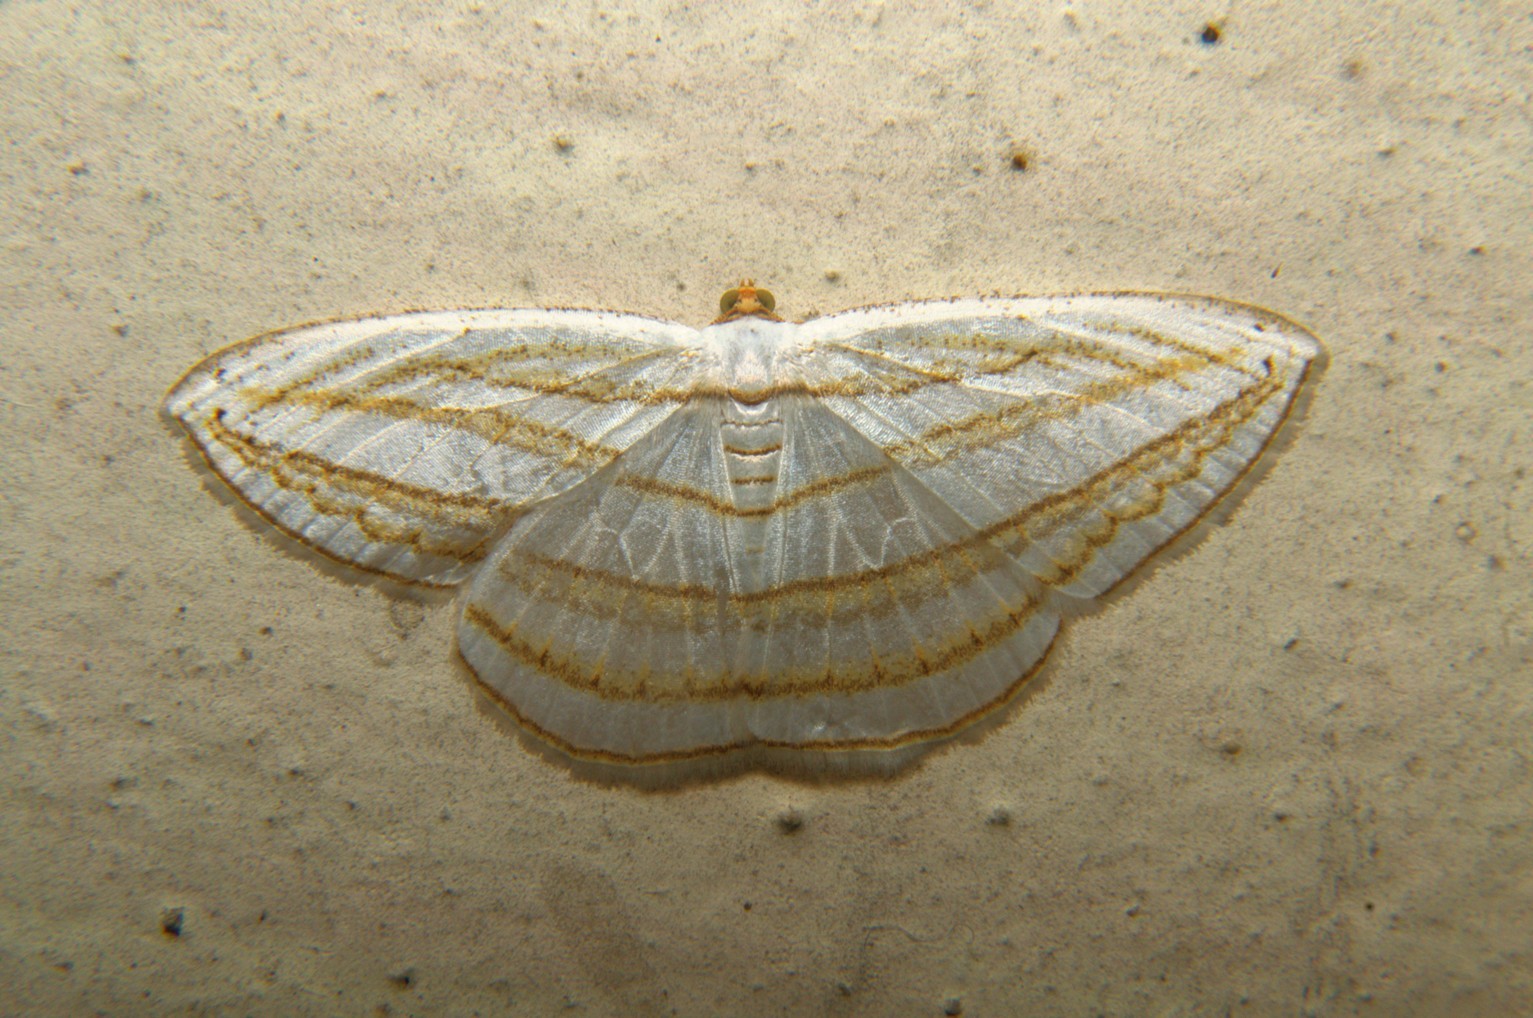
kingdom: Animalia
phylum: Arthropoda
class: Insecta
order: Lepidoptera
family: Geometridae
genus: Orthocabera
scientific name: Orthocabera sericea
